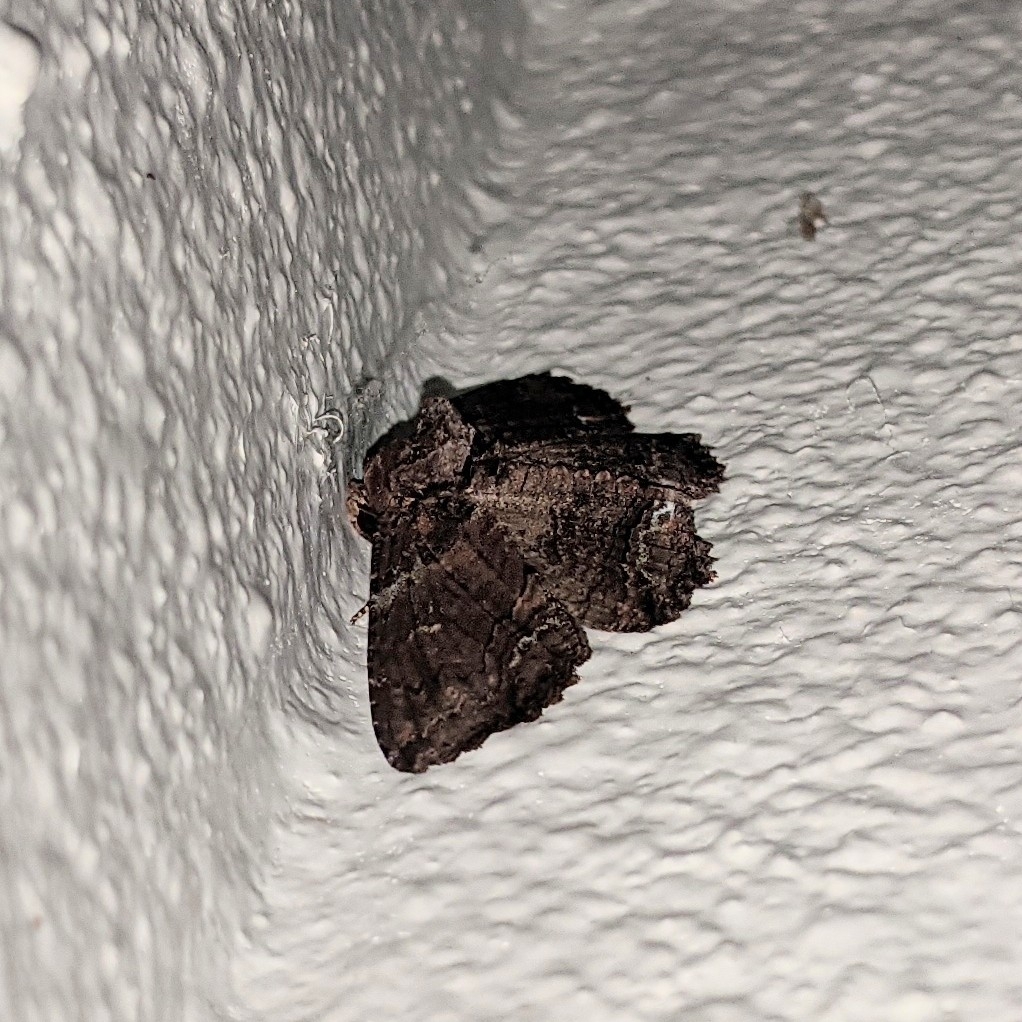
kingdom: Animalia
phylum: Arthropoda
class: Insecta
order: Lepidoptera
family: Erebidae
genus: Zale
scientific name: Zale lunata
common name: Lunate zale moth
